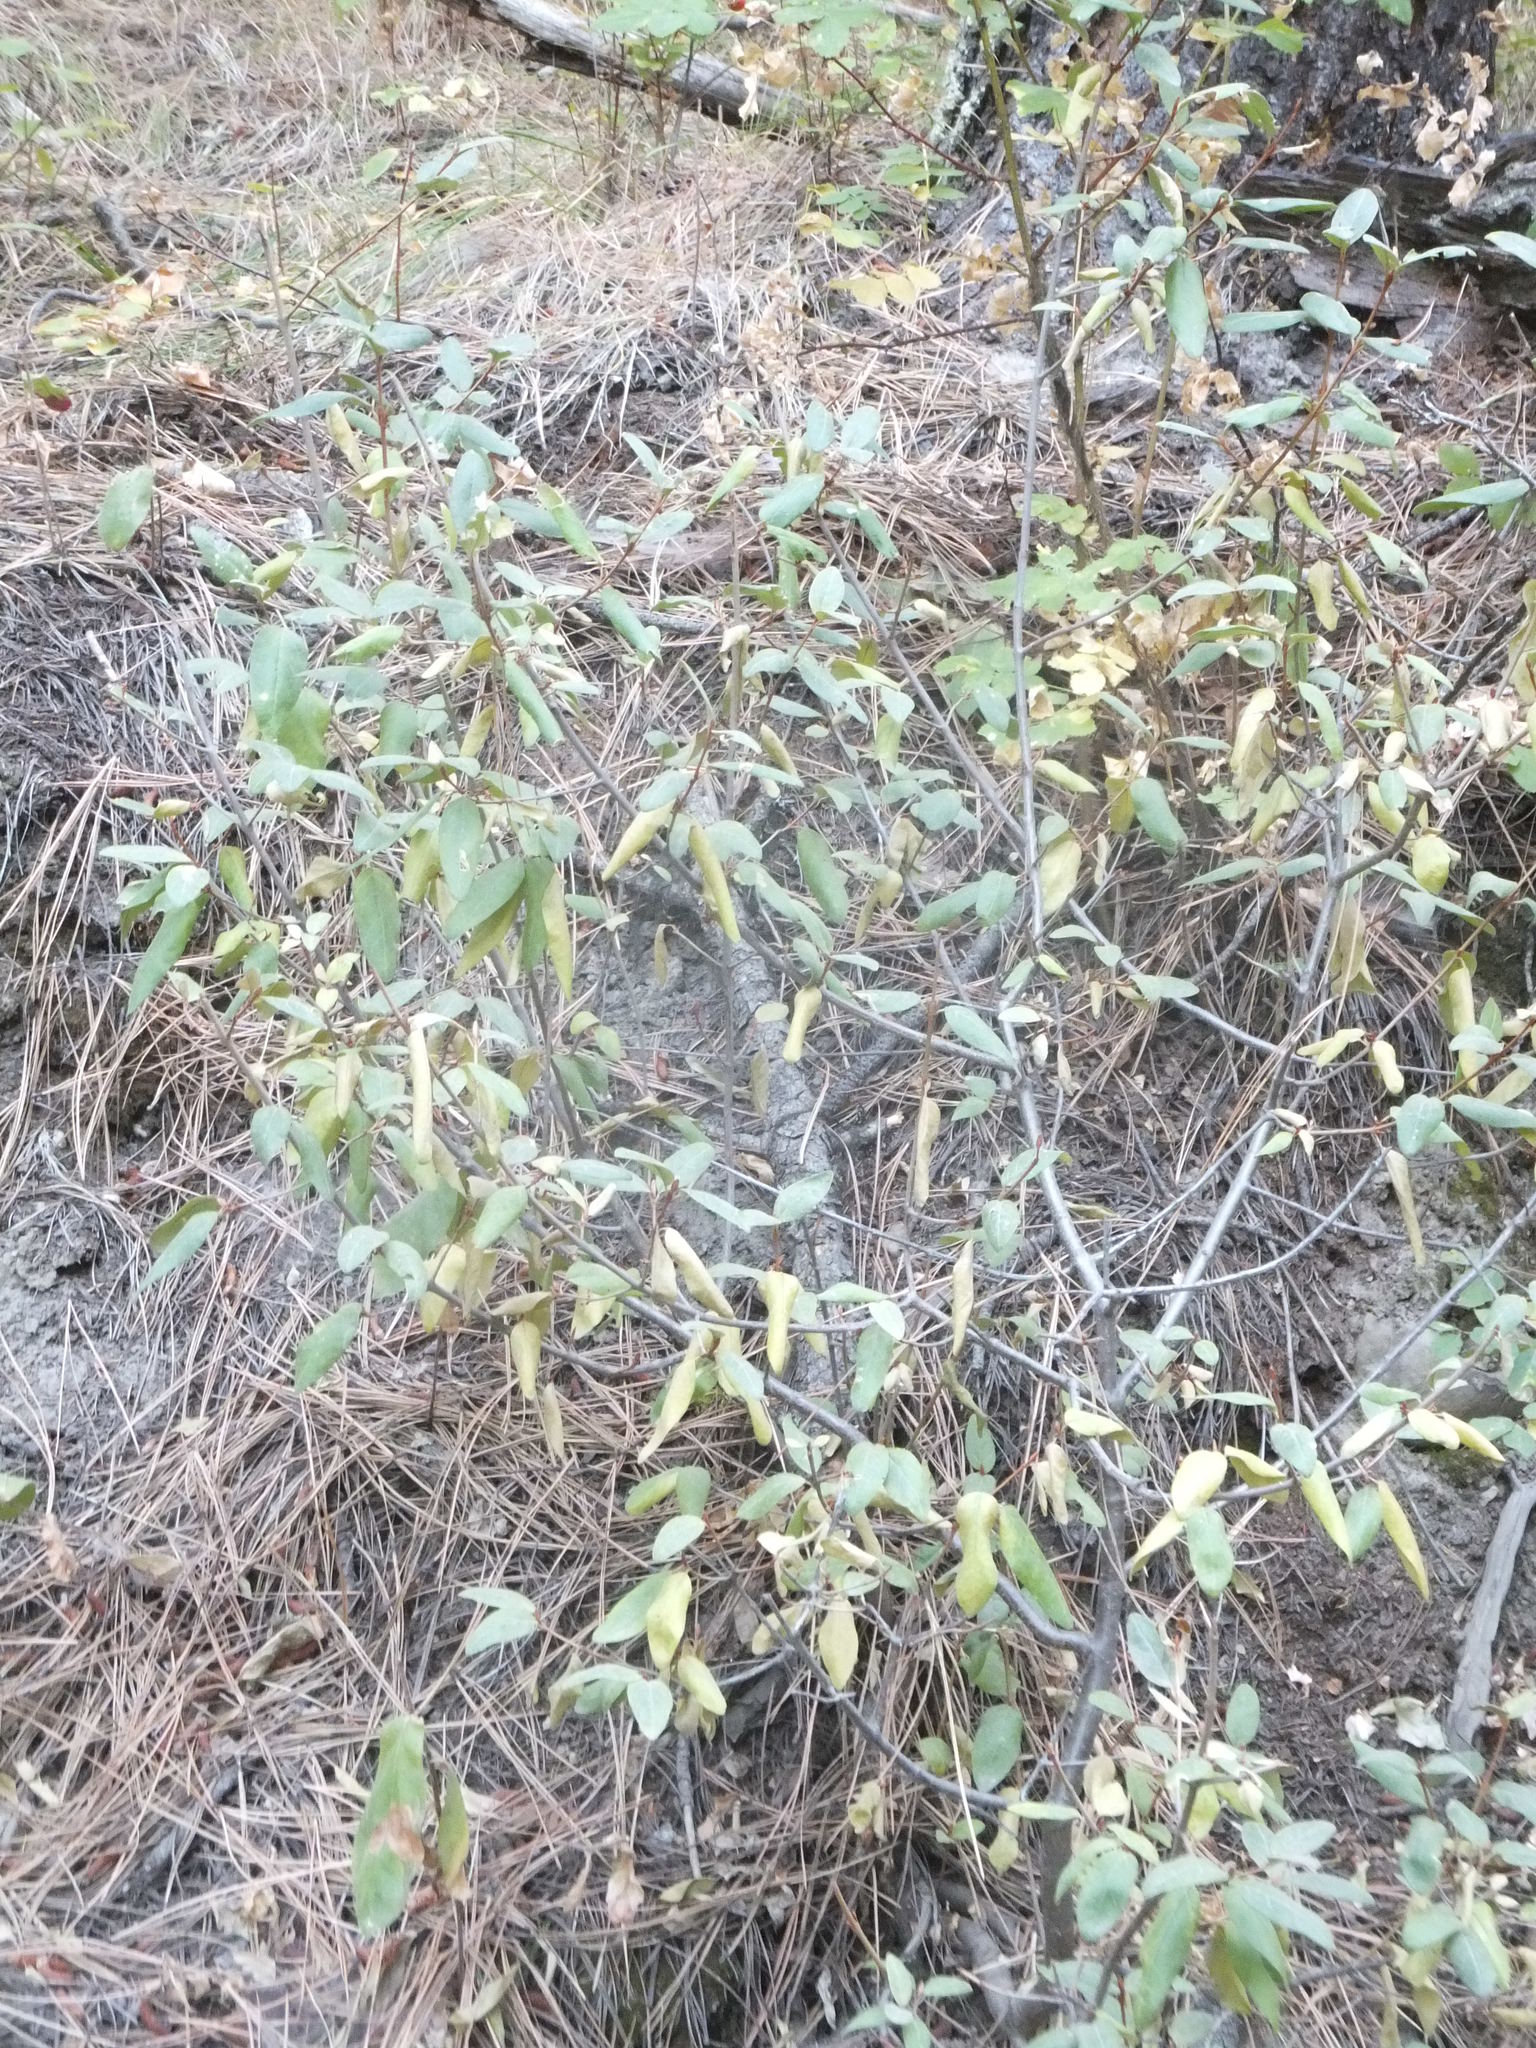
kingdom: Plantae
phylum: Tracheophyta
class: Magnoliopsida
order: Rosales
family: Elaeagnaceae
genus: Shepherdia
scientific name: Shepherdia canadensis
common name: Soapberry
